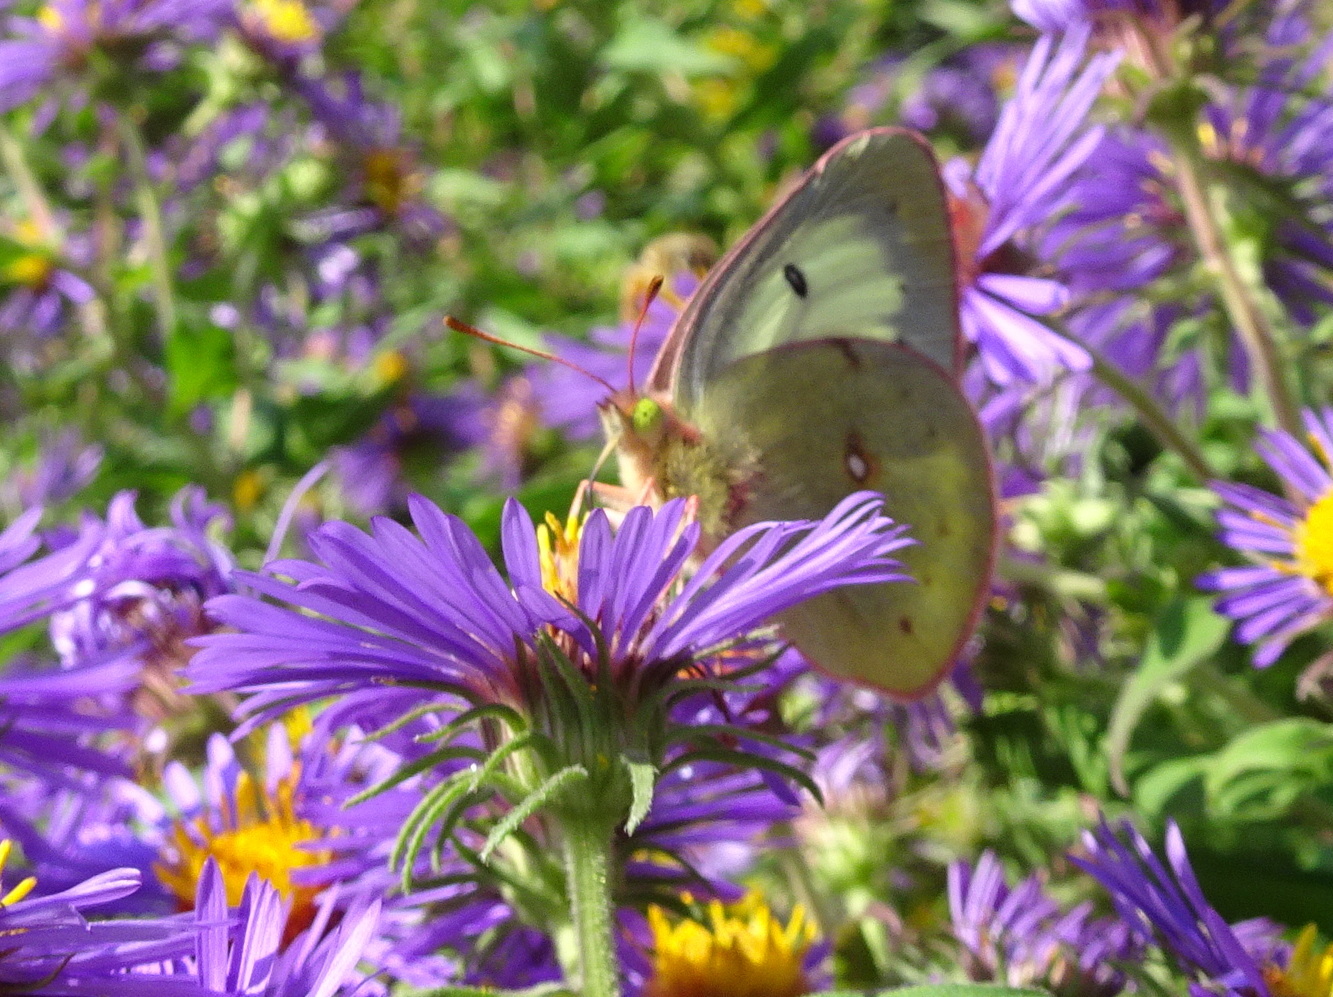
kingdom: Animalia
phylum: Arthropoda
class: Insecta
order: Lepidoptera
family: Pieridae
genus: Colias
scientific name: Colias philodice
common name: Clouded sulphur
